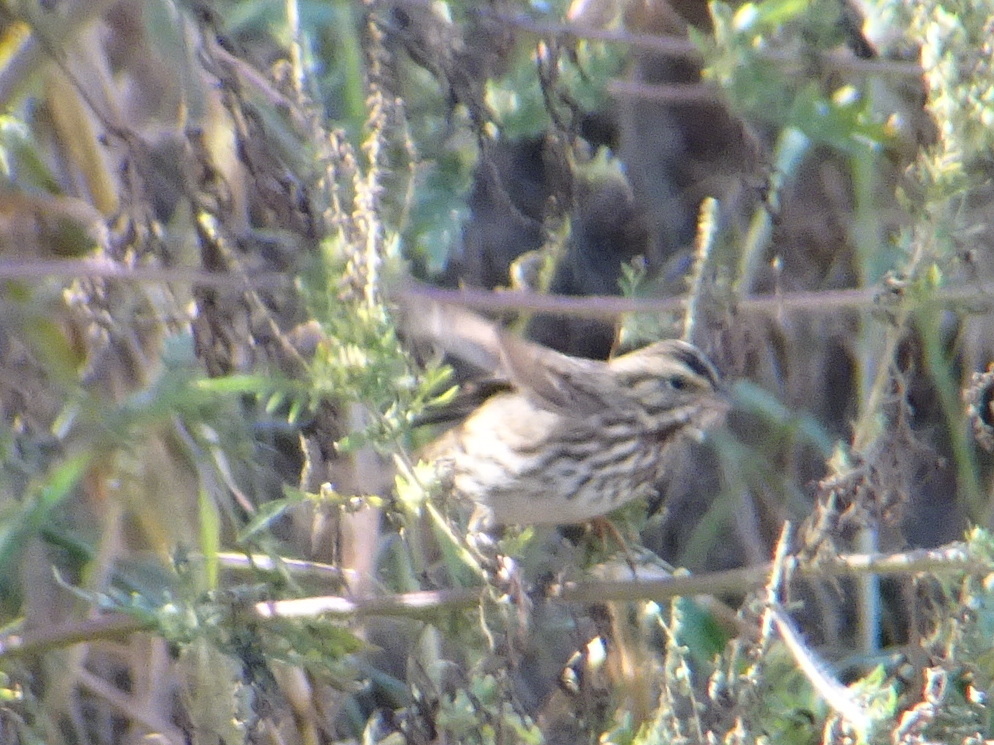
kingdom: Animalia
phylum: Chordata
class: Aves
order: Passeriformes
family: Passerellidae
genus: Passerculus
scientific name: Passerculus sandwichensis
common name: Savannah sparrow
